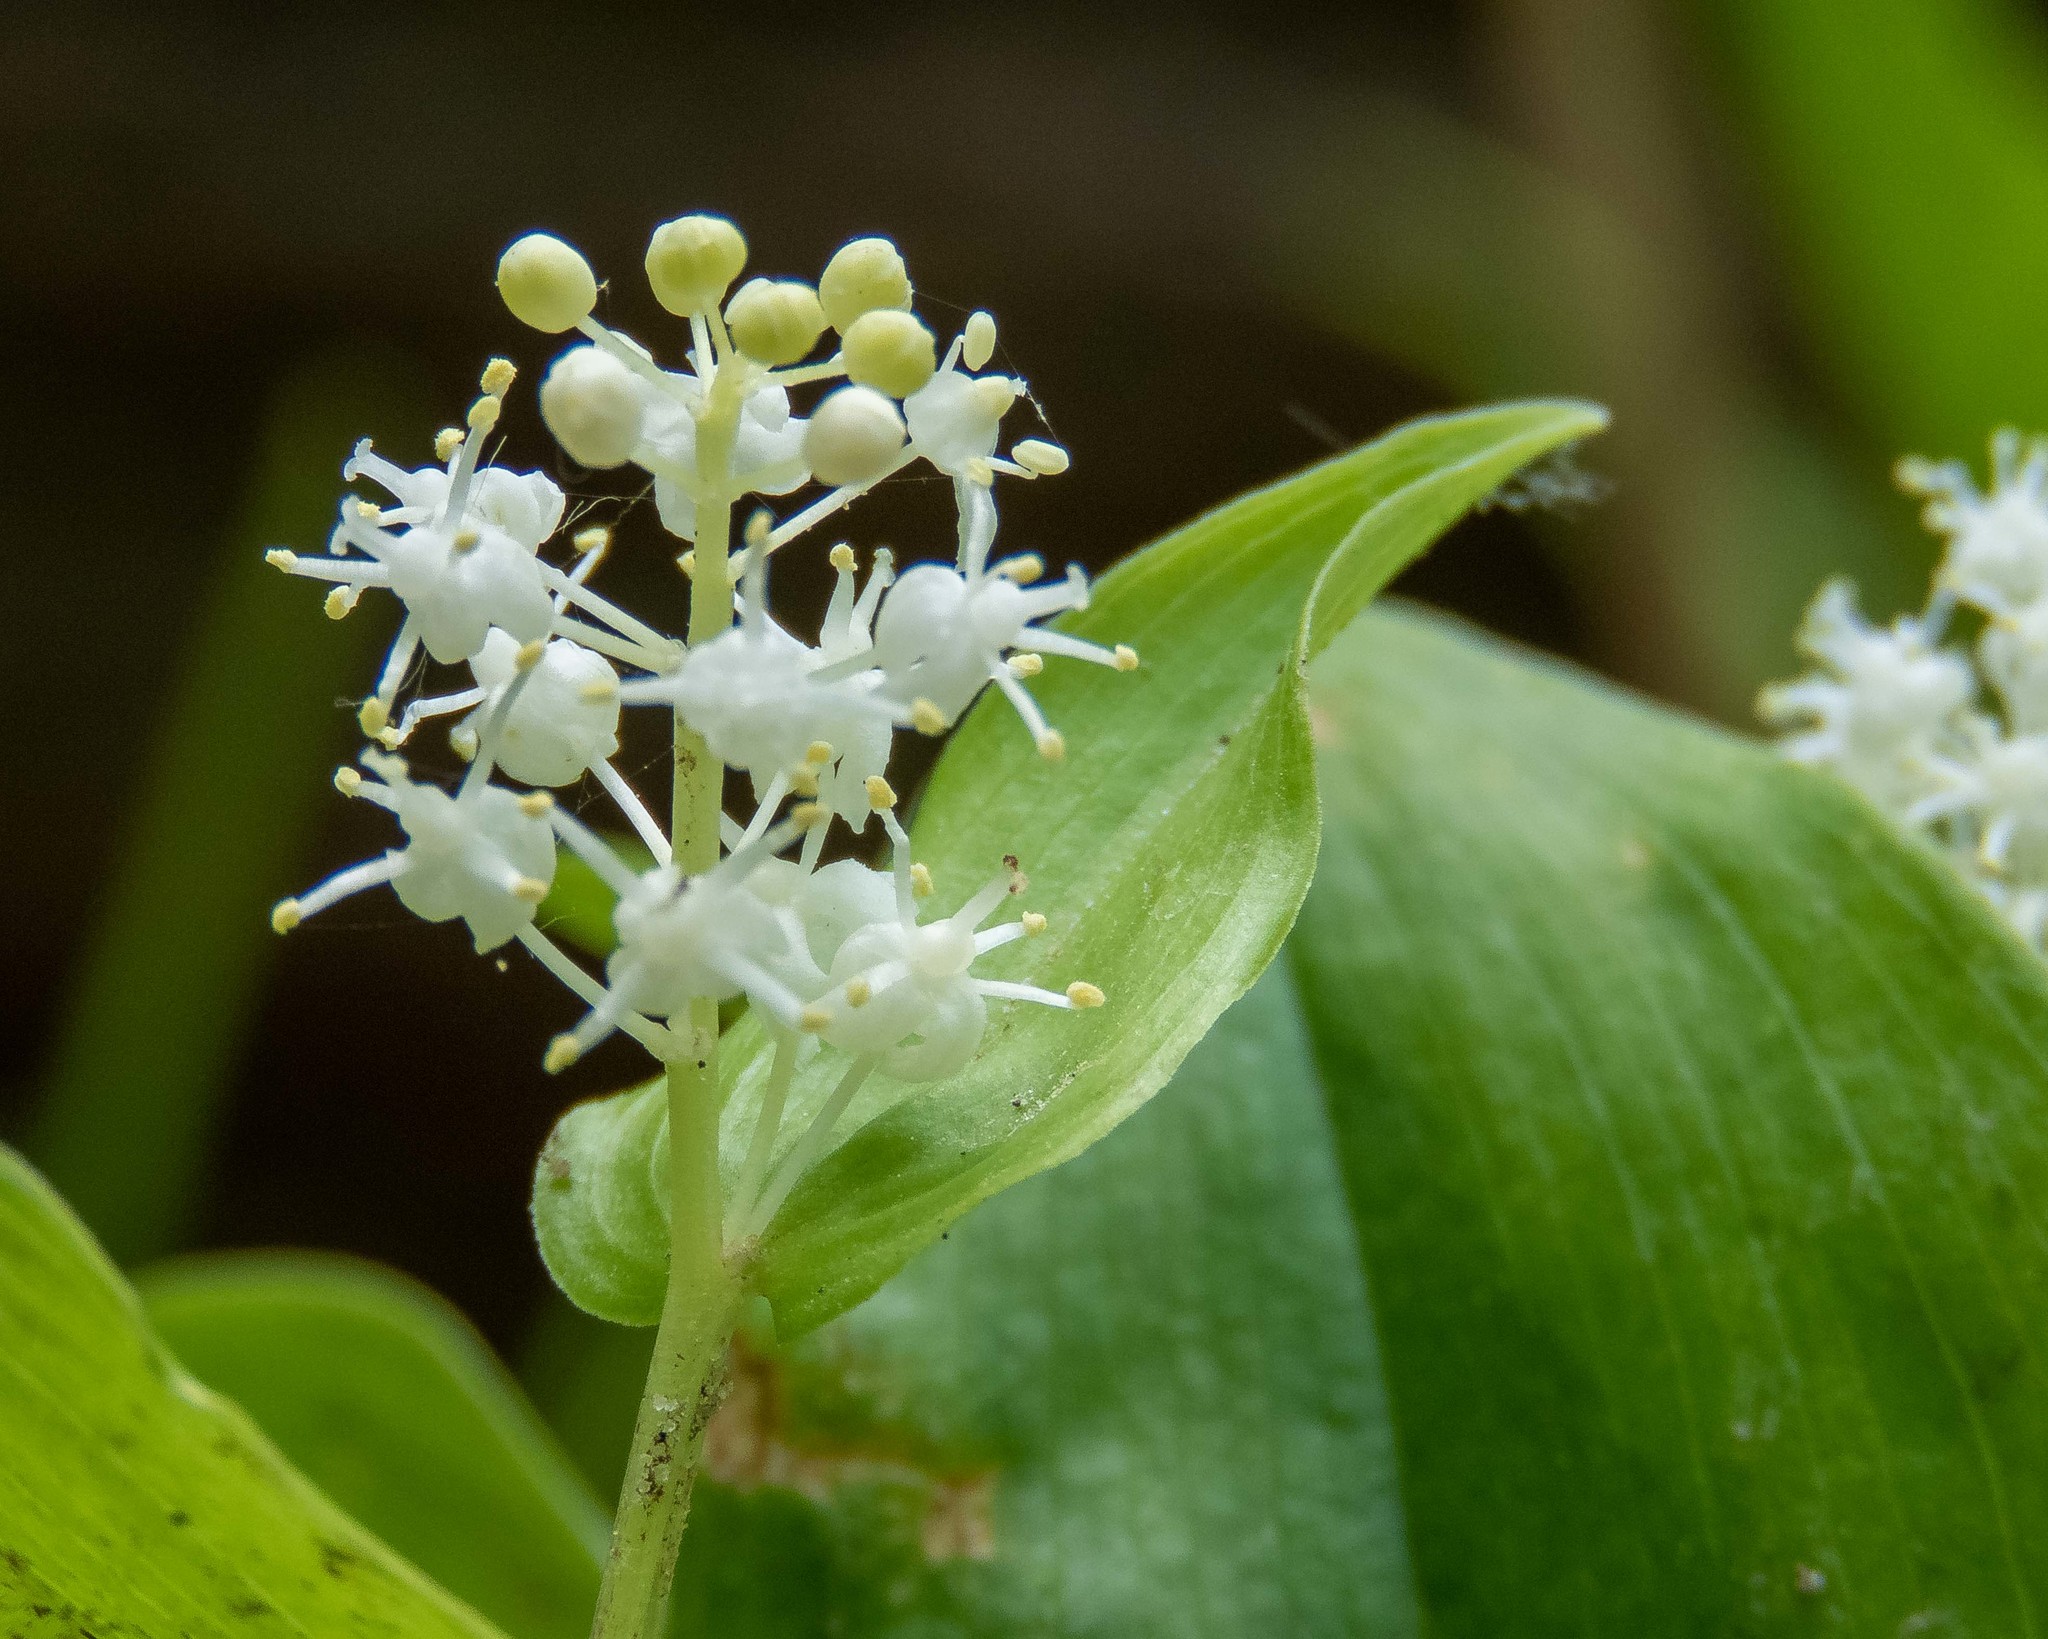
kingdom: Plantae
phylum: Tracheophyta
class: Liliopsida
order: Asparagales
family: Asparagaceae
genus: Maianthemum
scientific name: Maianthemum canadense
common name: False lily-of-the-valley
